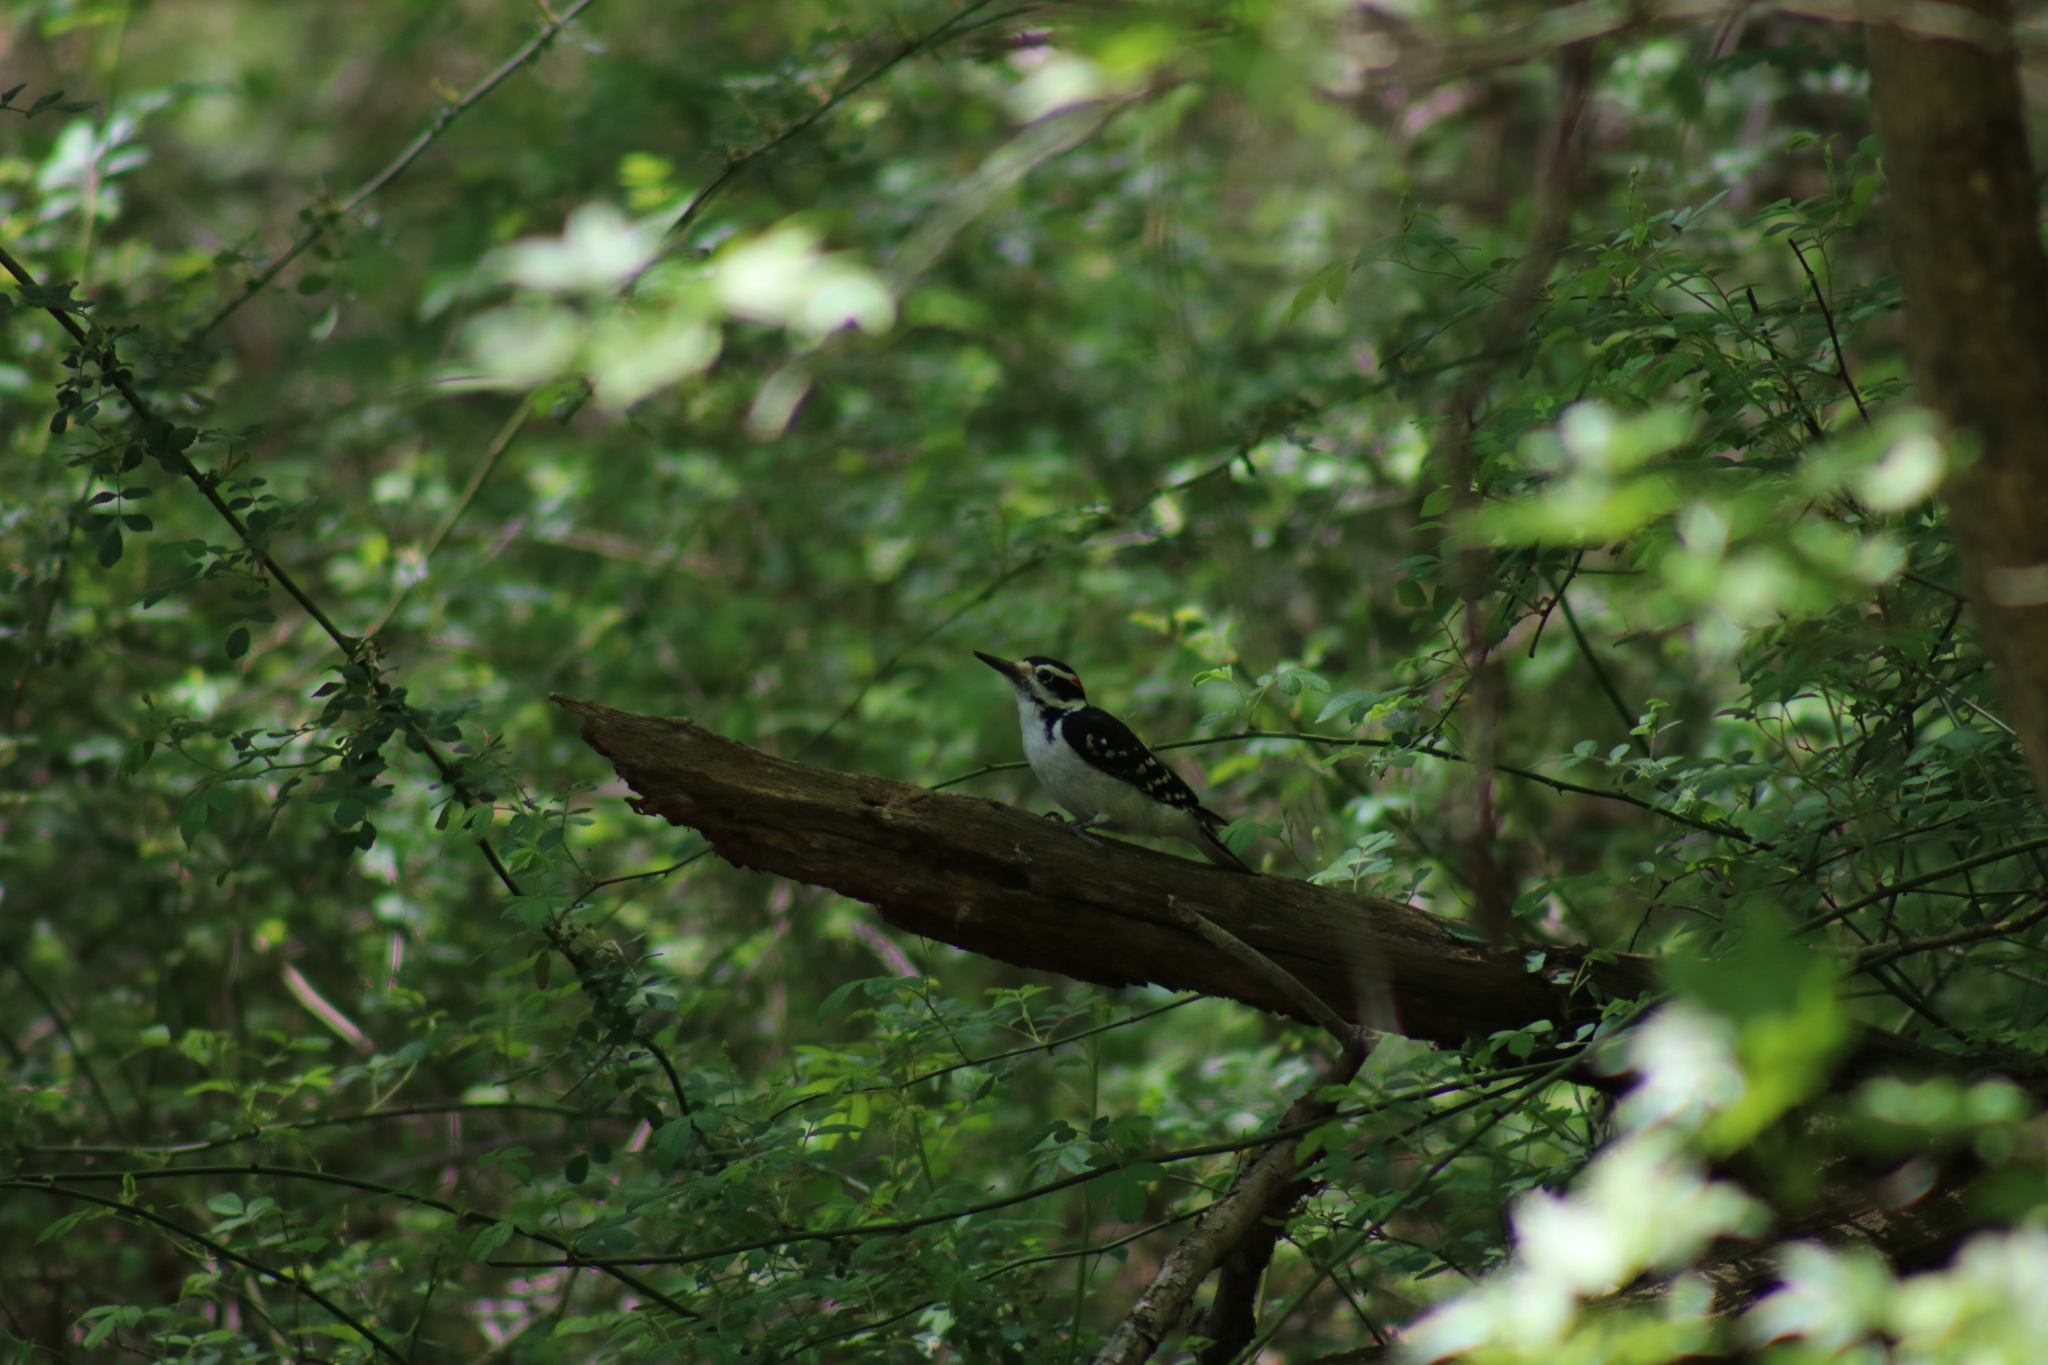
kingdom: Animalia
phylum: Chordata
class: Aves
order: Piciformes
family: Picidae
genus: Leuconotopicus
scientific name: Leuconotopicus villosus
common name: Hairy woodpecker
